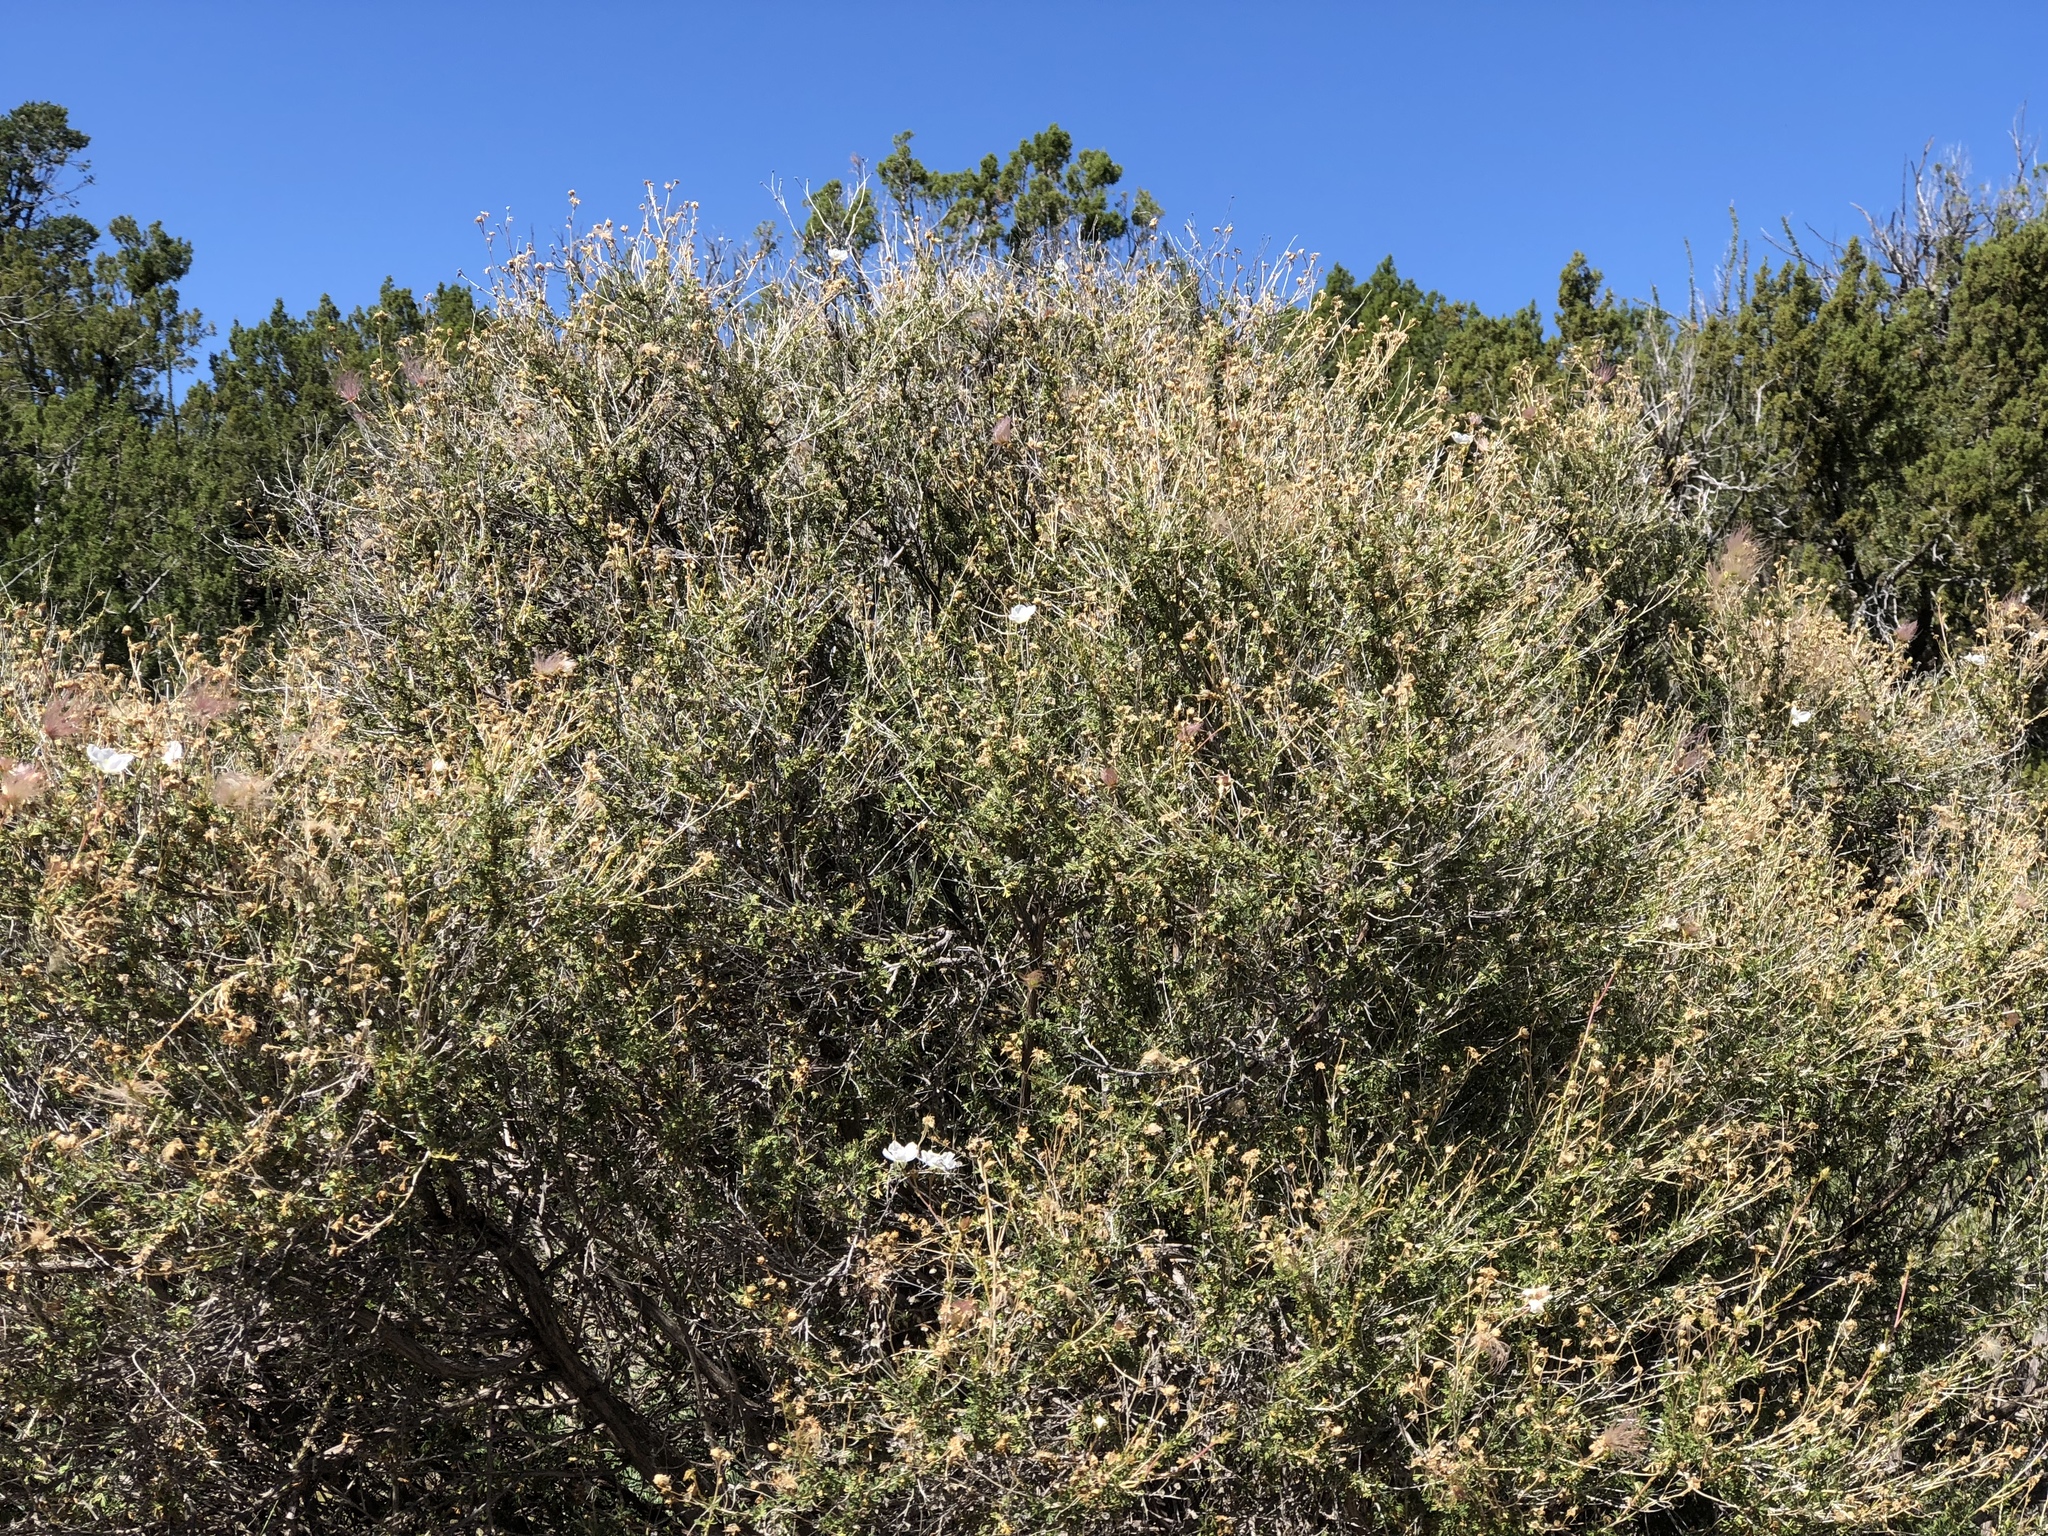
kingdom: Plantae
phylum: Tracheophyta
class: Magnoliopsida
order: Rosales
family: Rosaceae
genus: Fallugia
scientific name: Fallugia paradoxa
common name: Apache-plume
